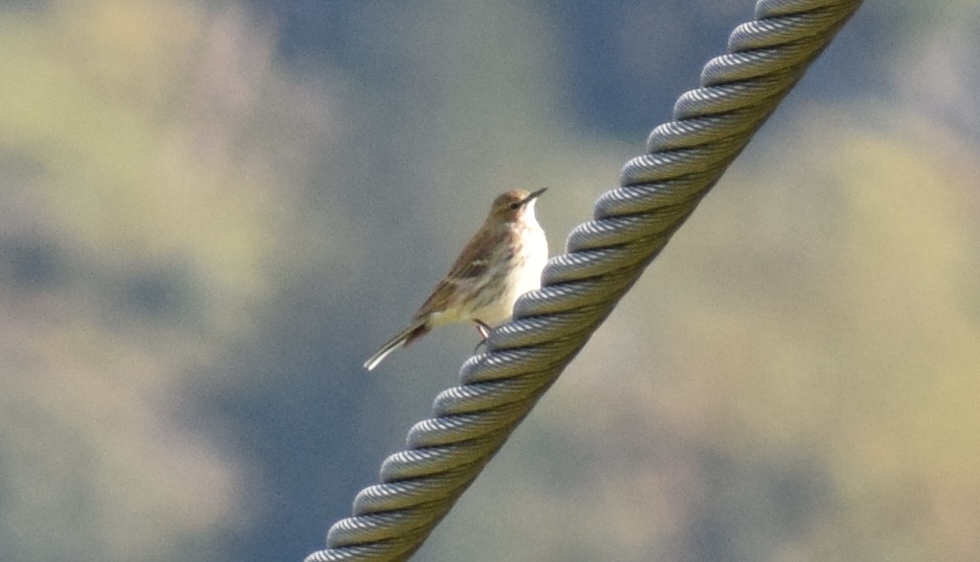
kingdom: Animalia
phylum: Chordata
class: Aves
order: Passeriformes
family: Motacillidae
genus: Anthus
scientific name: Anthus spinoletta
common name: Water pipit
